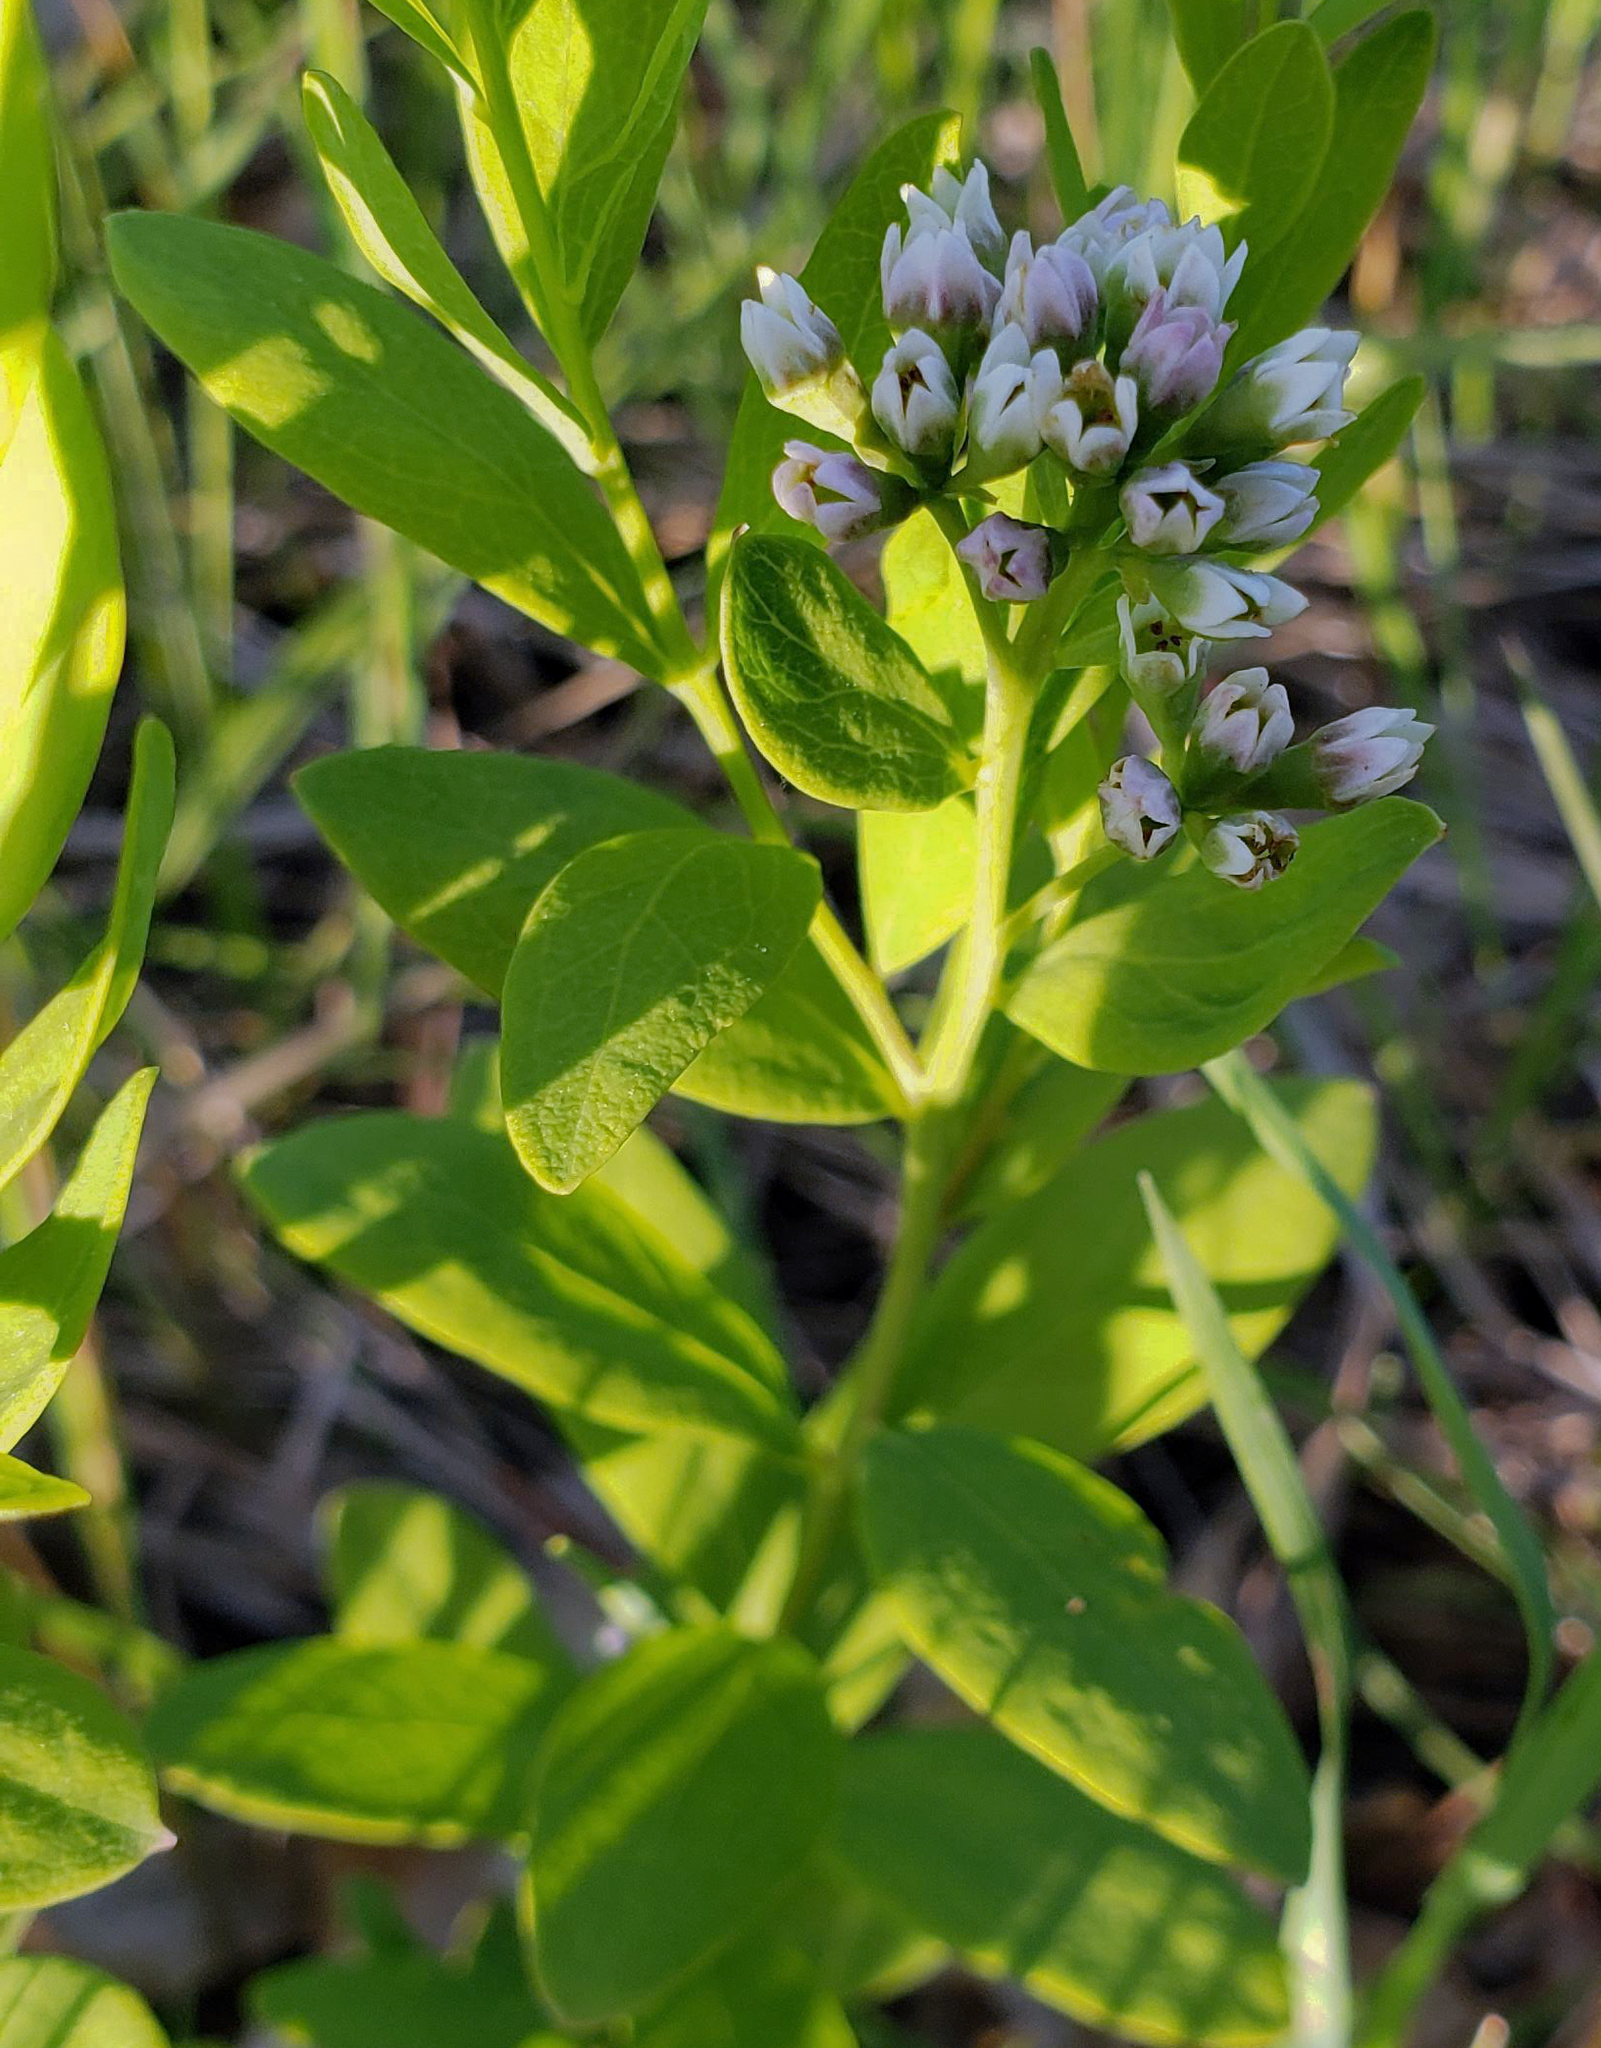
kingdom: Plantae
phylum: Tracheophyta
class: Magnoliopsida
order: Santalales
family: Comandraceae
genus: Comandra
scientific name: Comandra umbellata
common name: Bastard toadflax
